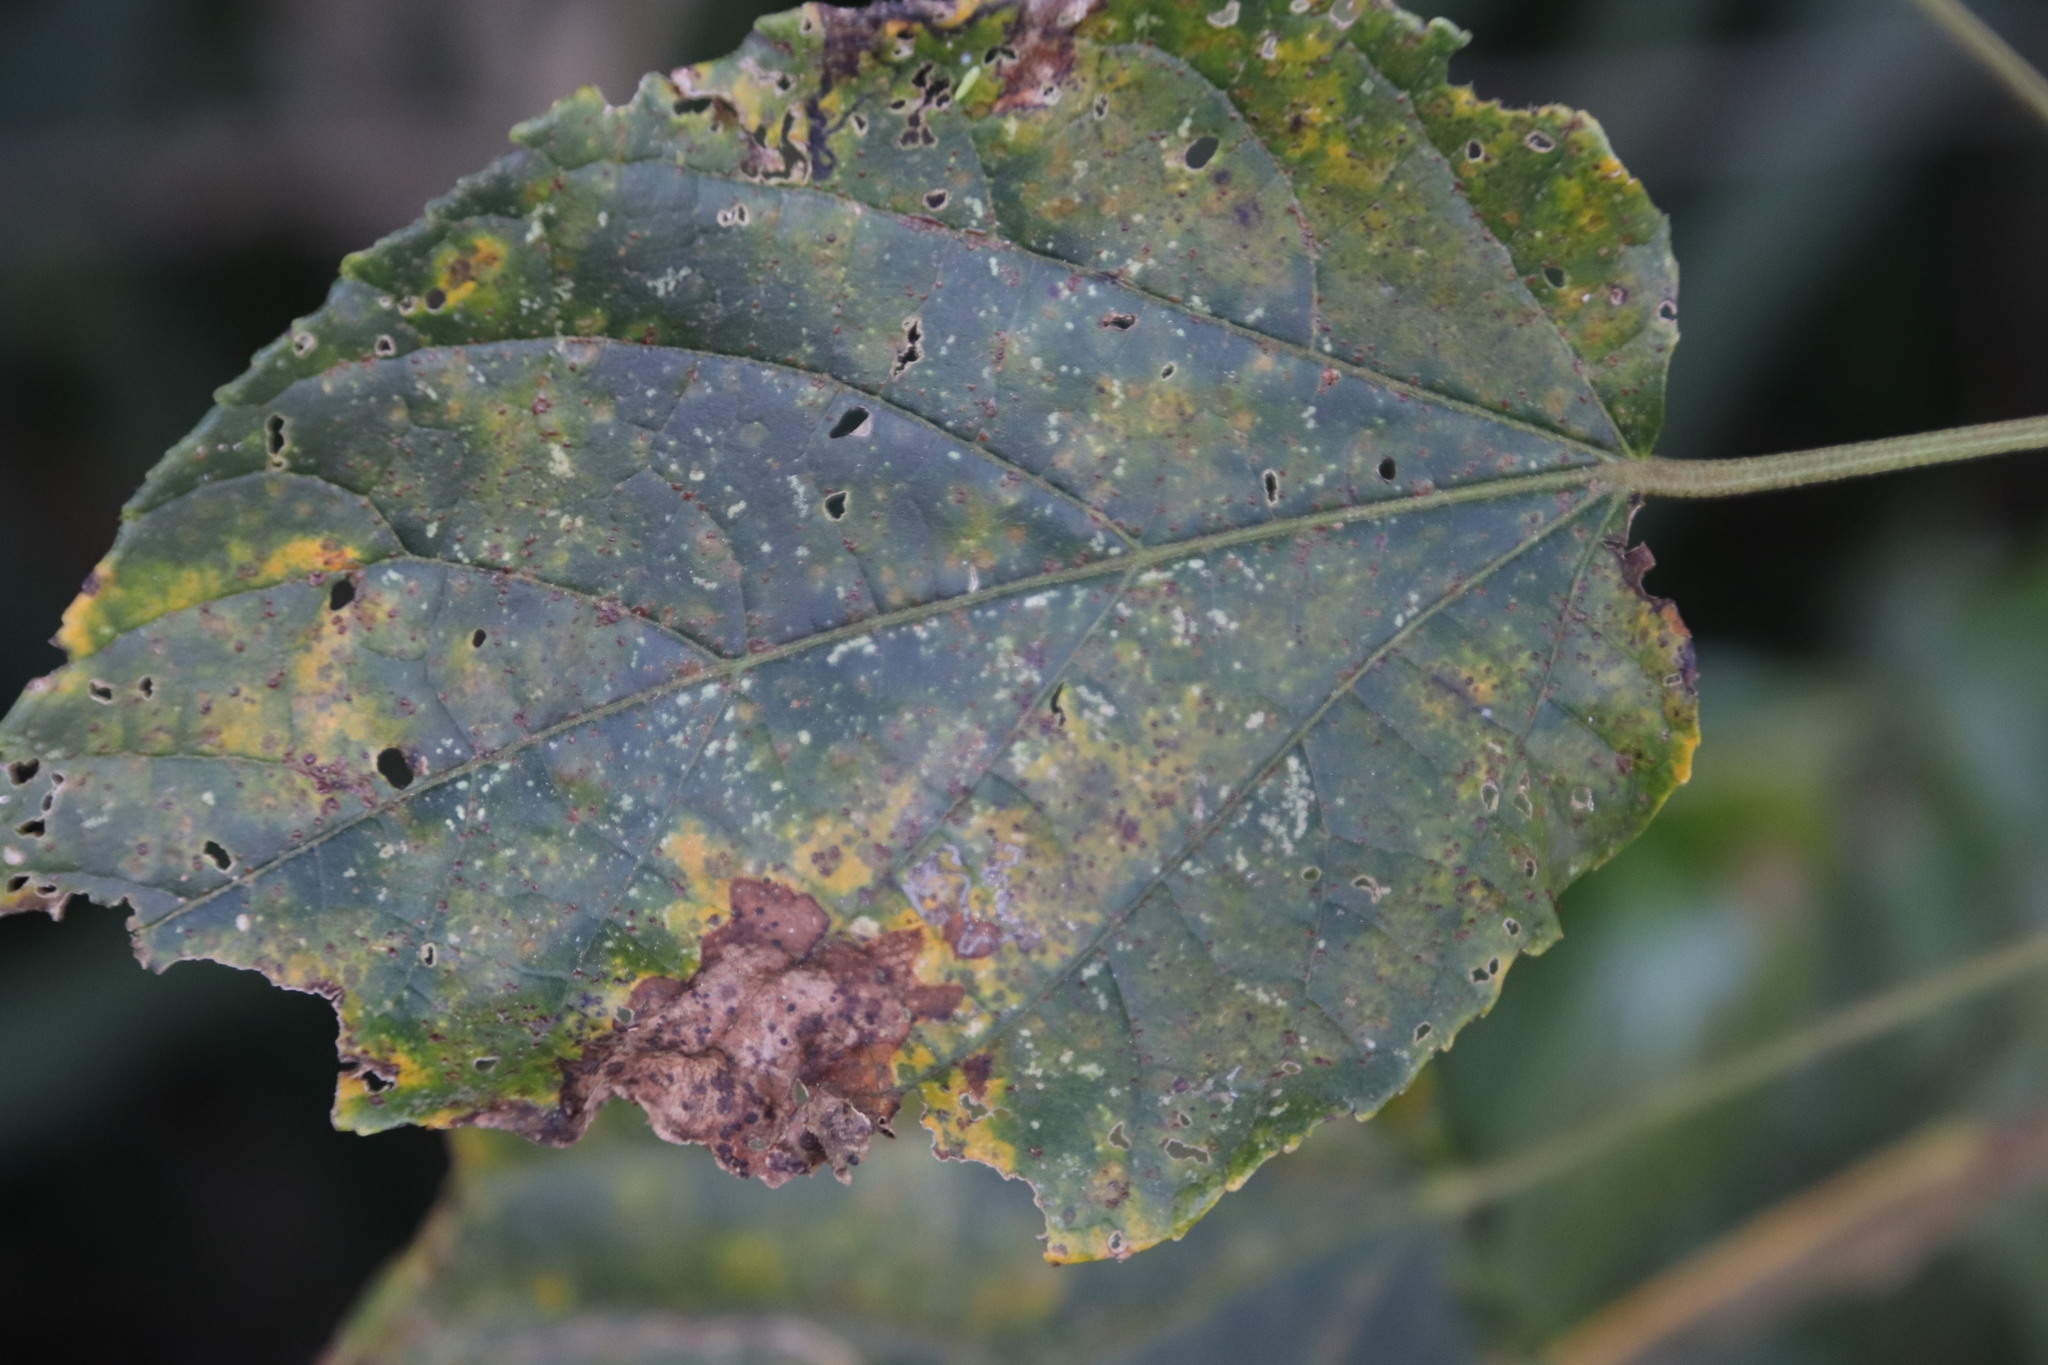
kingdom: Plantae
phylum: Tracheophyta
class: Magnoliopsida
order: Malpighiales
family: Euphorbiaceae
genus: Croton
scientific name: Croton sylvaticus
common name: Forest croton
